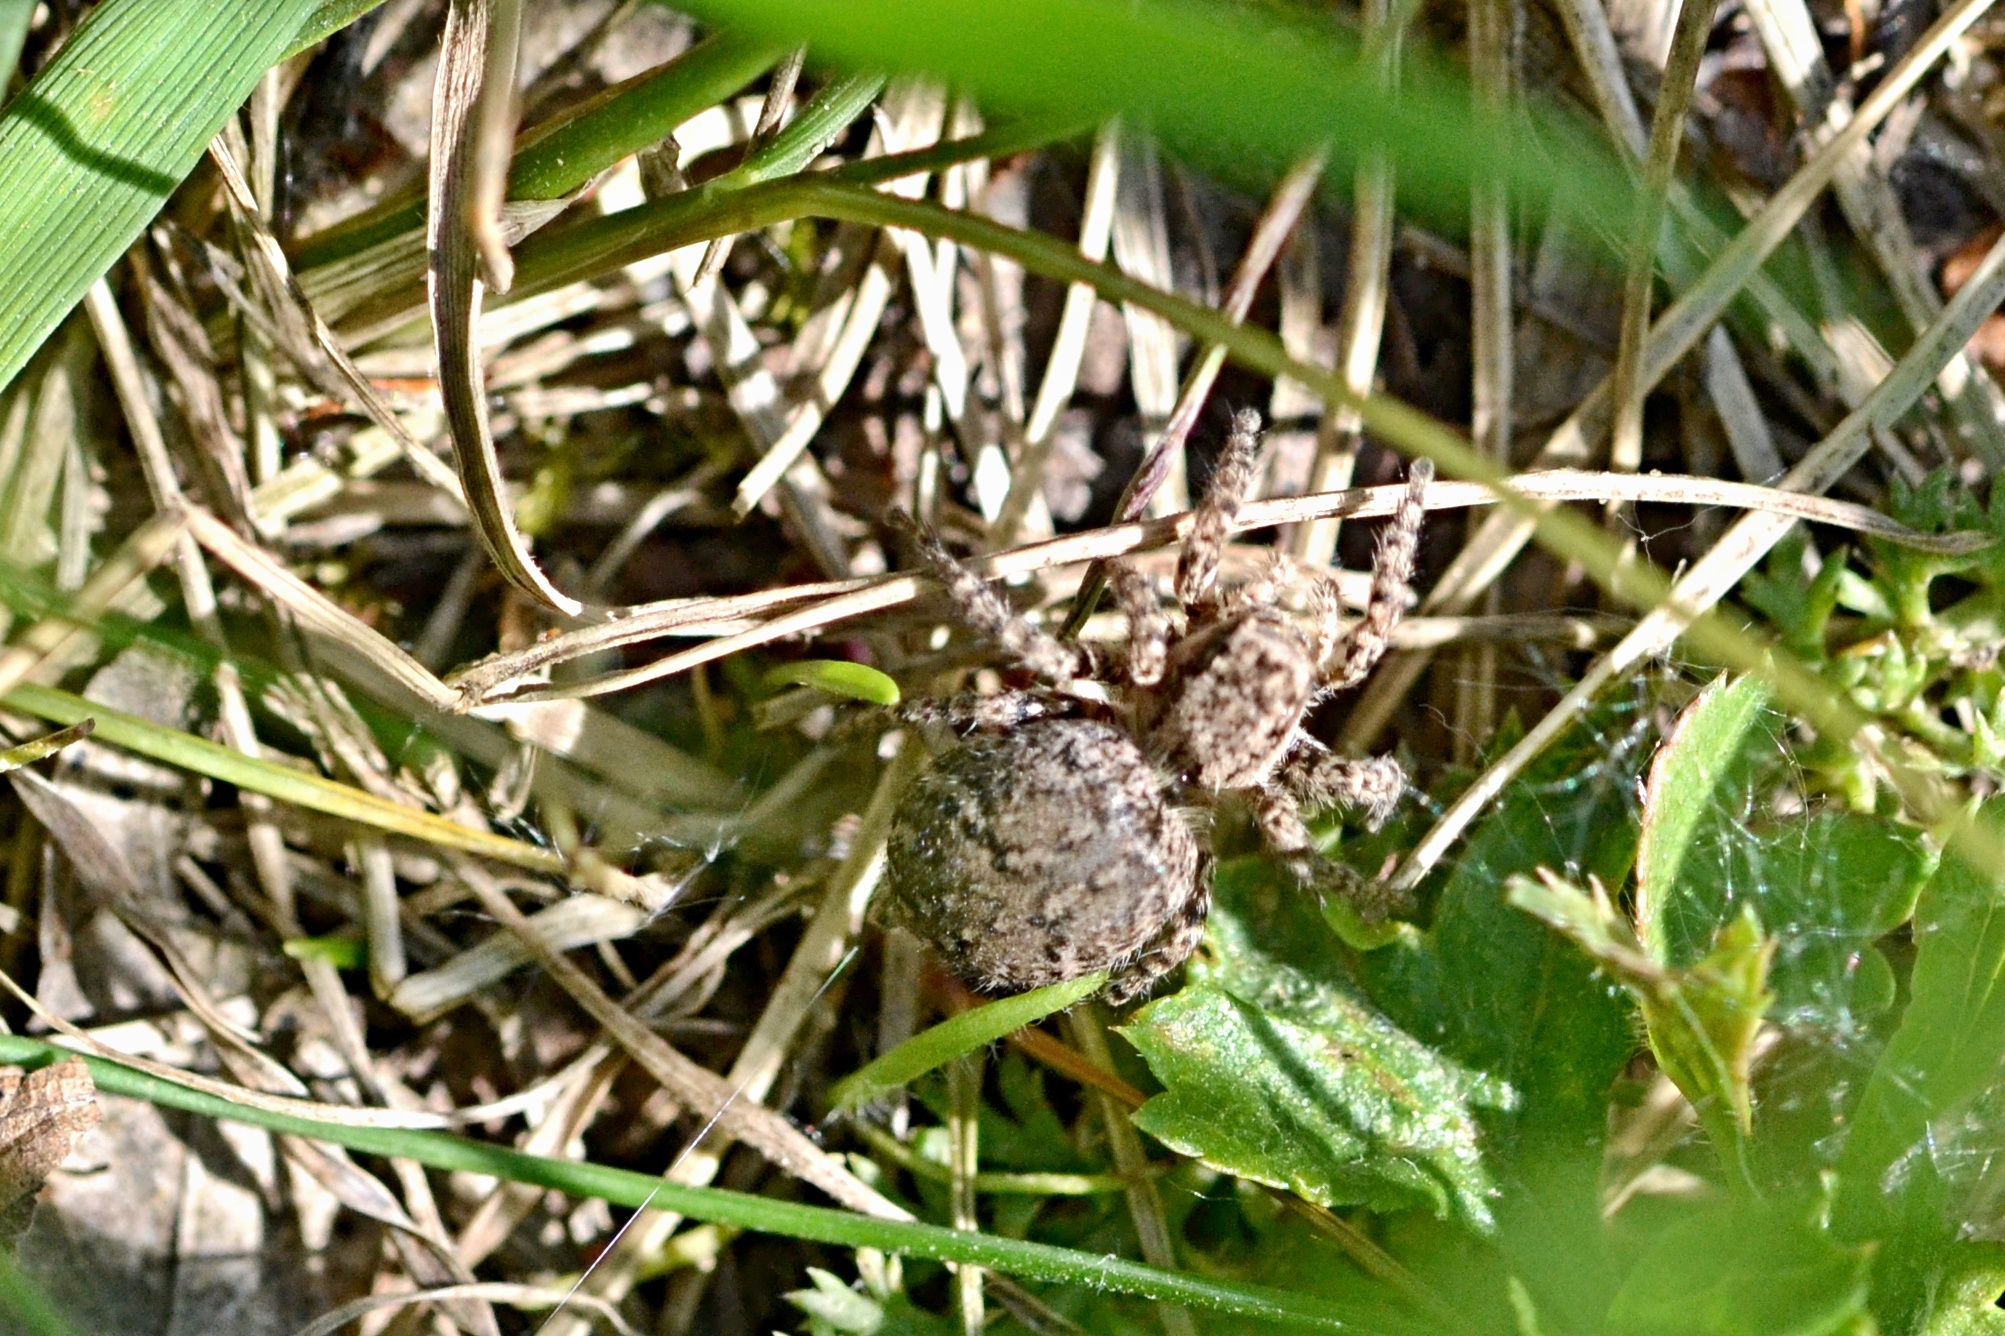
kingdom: Animalia
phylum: Arthropoda
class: Arachnida
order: Araneae
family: Salticidae
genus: Aelurillus
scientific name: Aelurillus v-insignitus
